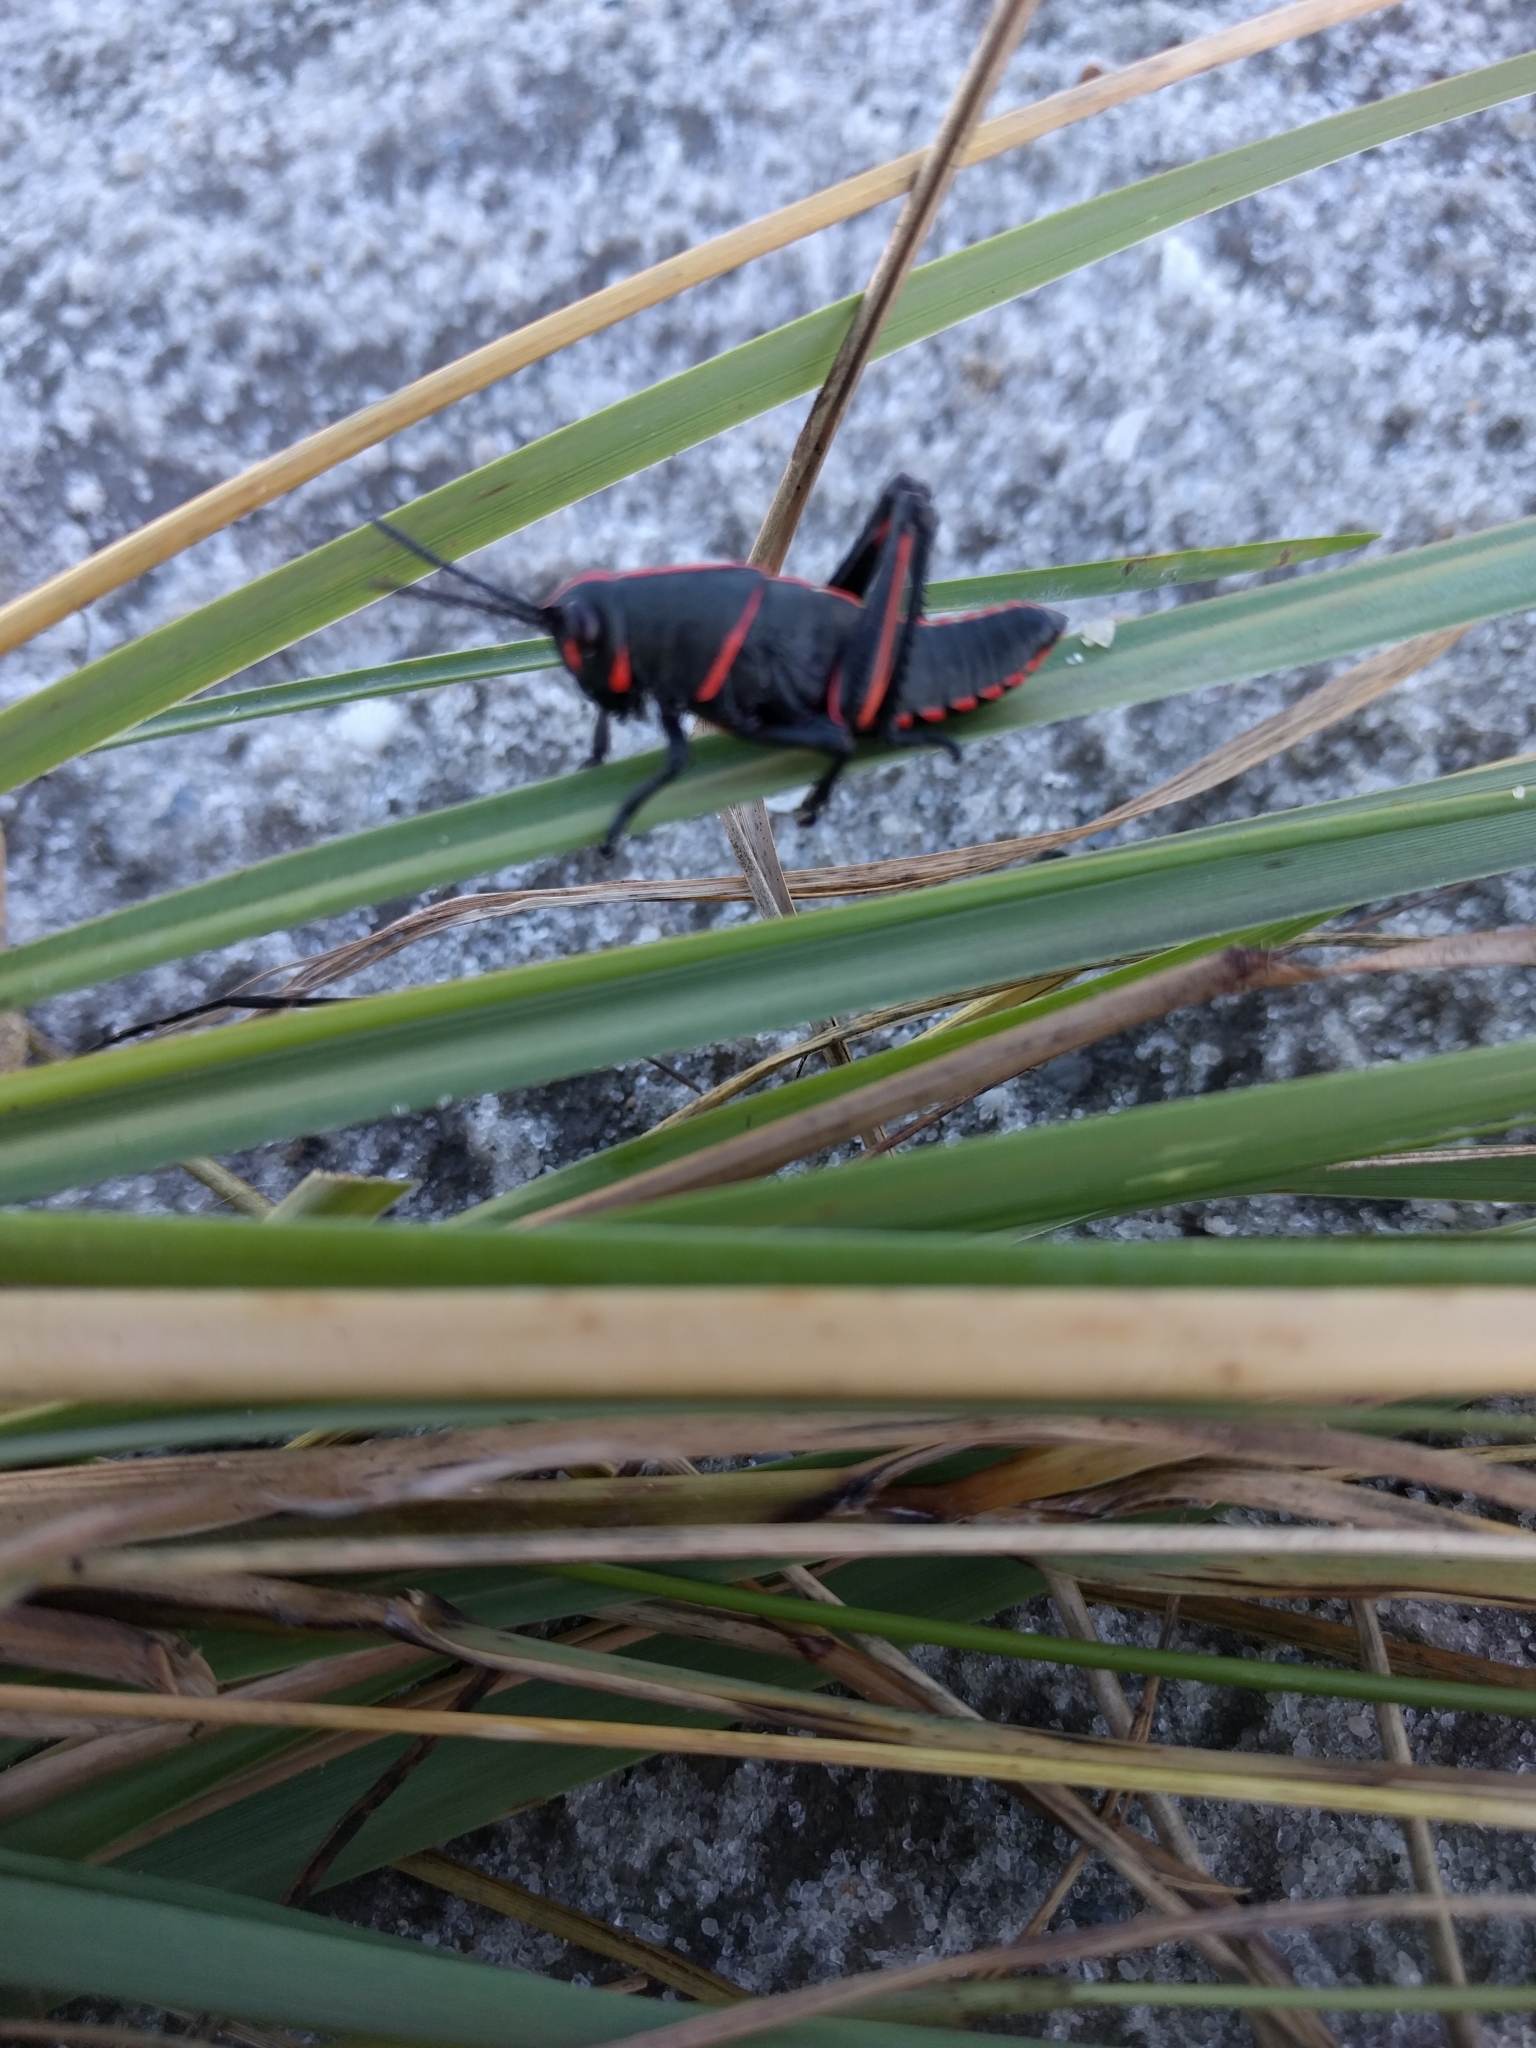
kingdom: Animalia
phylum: Arthropoda
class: Insecta
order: Orthoptera
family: Romaleidae
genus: Romalea
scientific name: Romalea microptera
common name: Eastern lubber grasshopper
